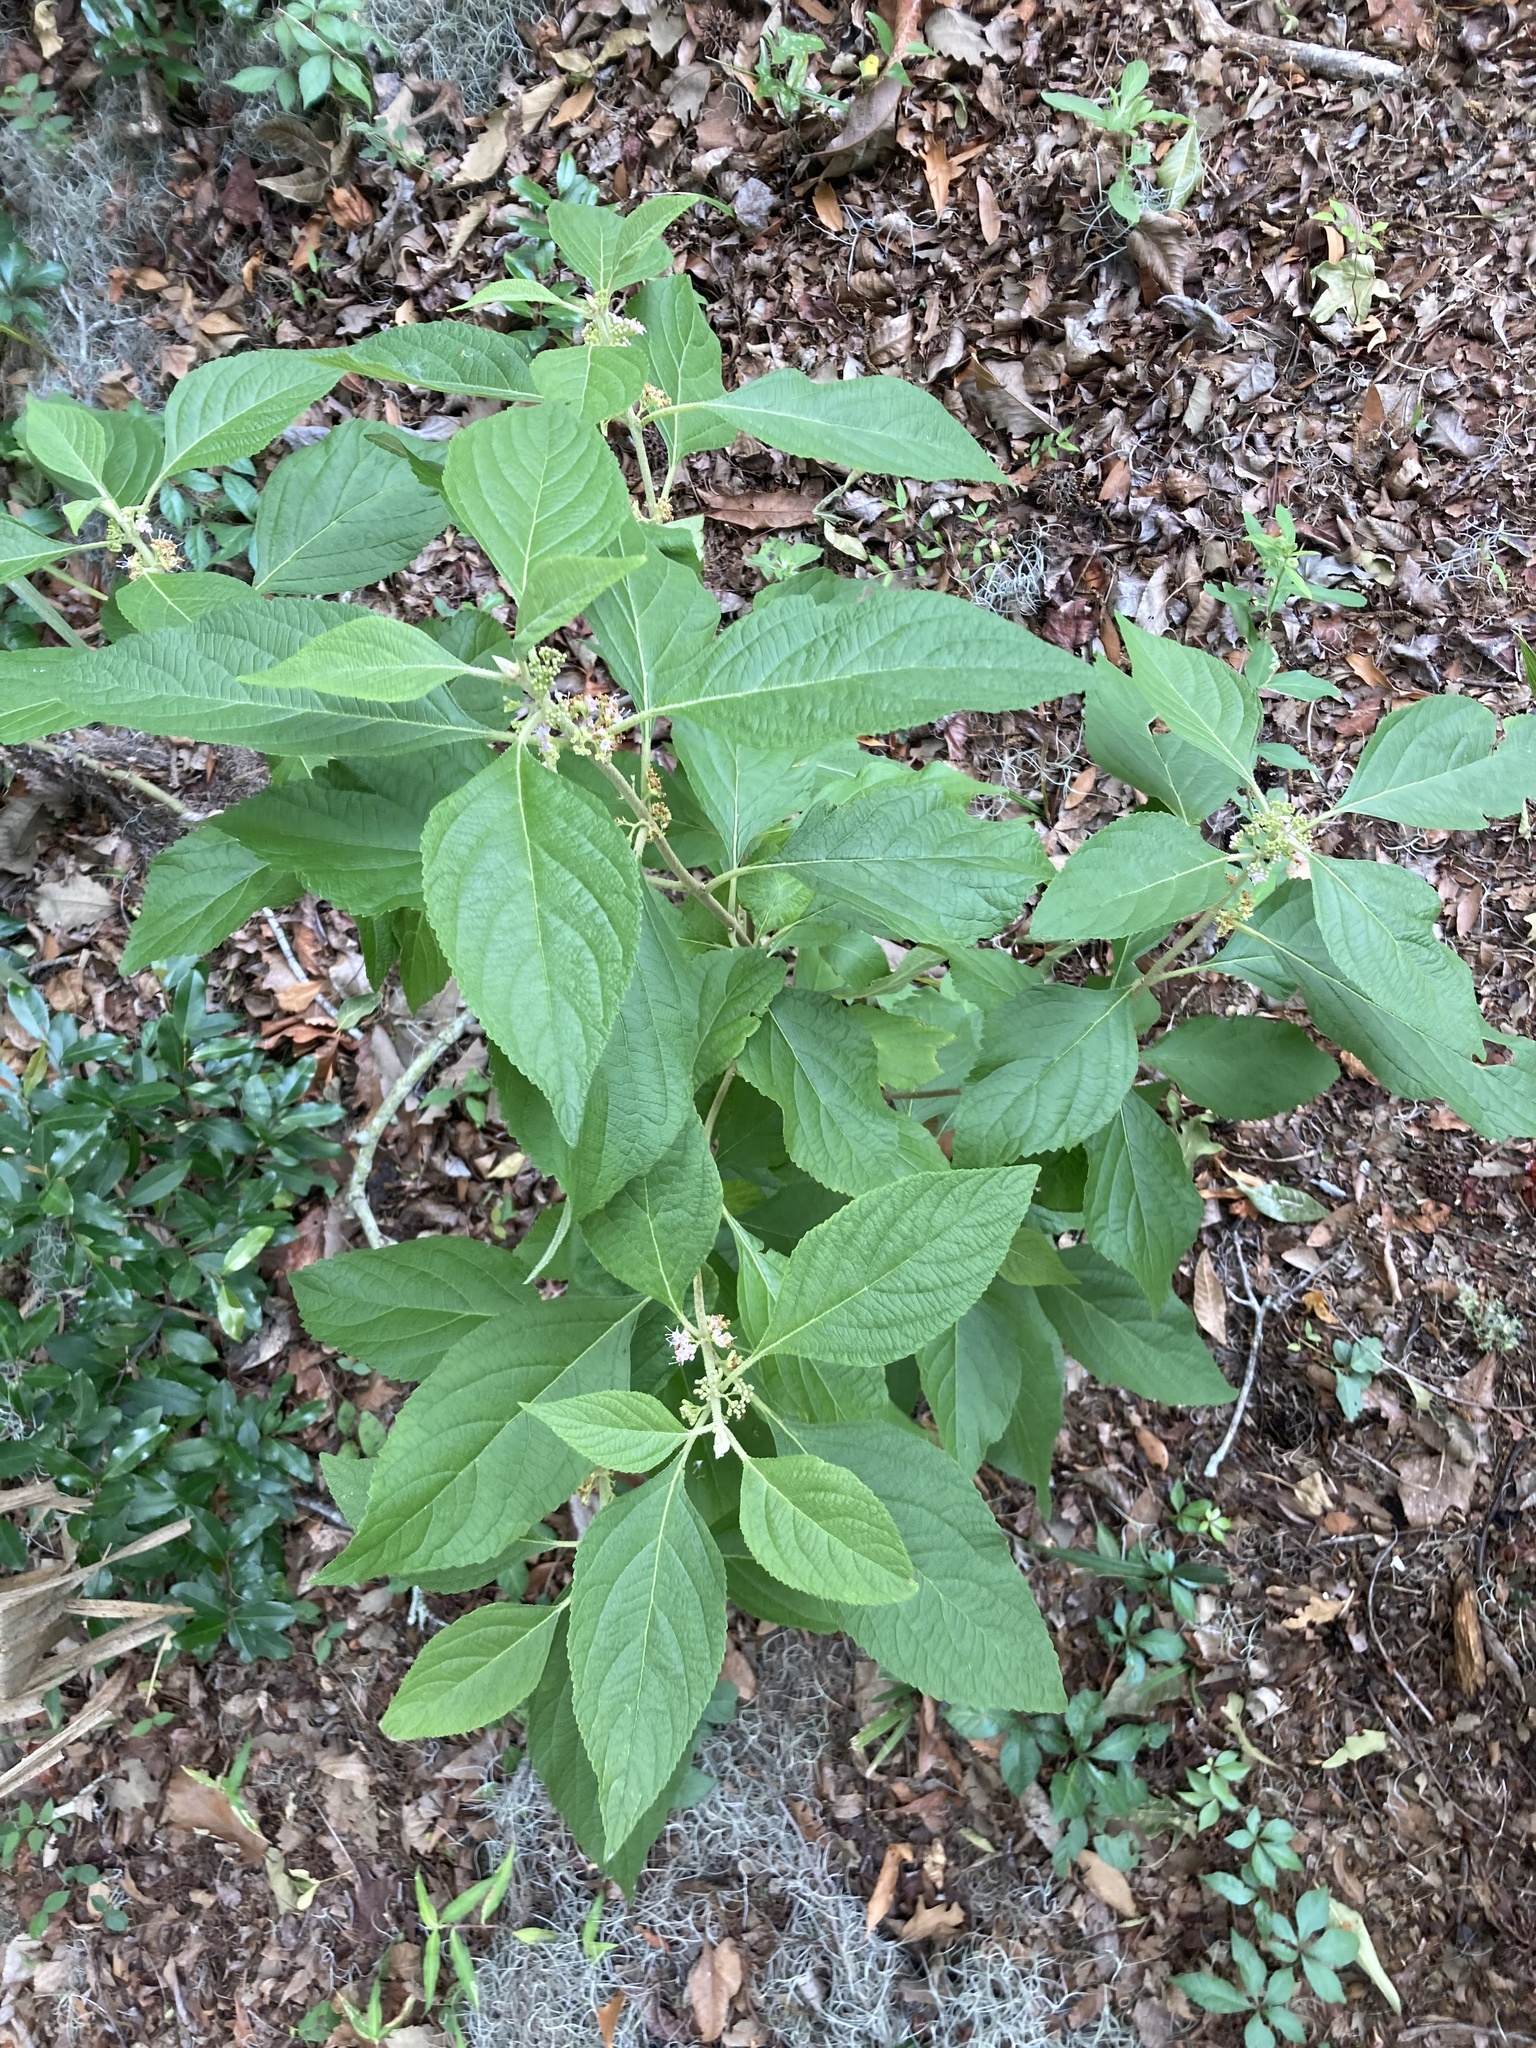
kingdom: Plantae
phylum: Tracheophyta
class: Magnoliopsida
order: Lamiales
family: Lamiaceae
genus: Callicarpa
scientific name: Callicarpa americana
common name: American beautyberry
